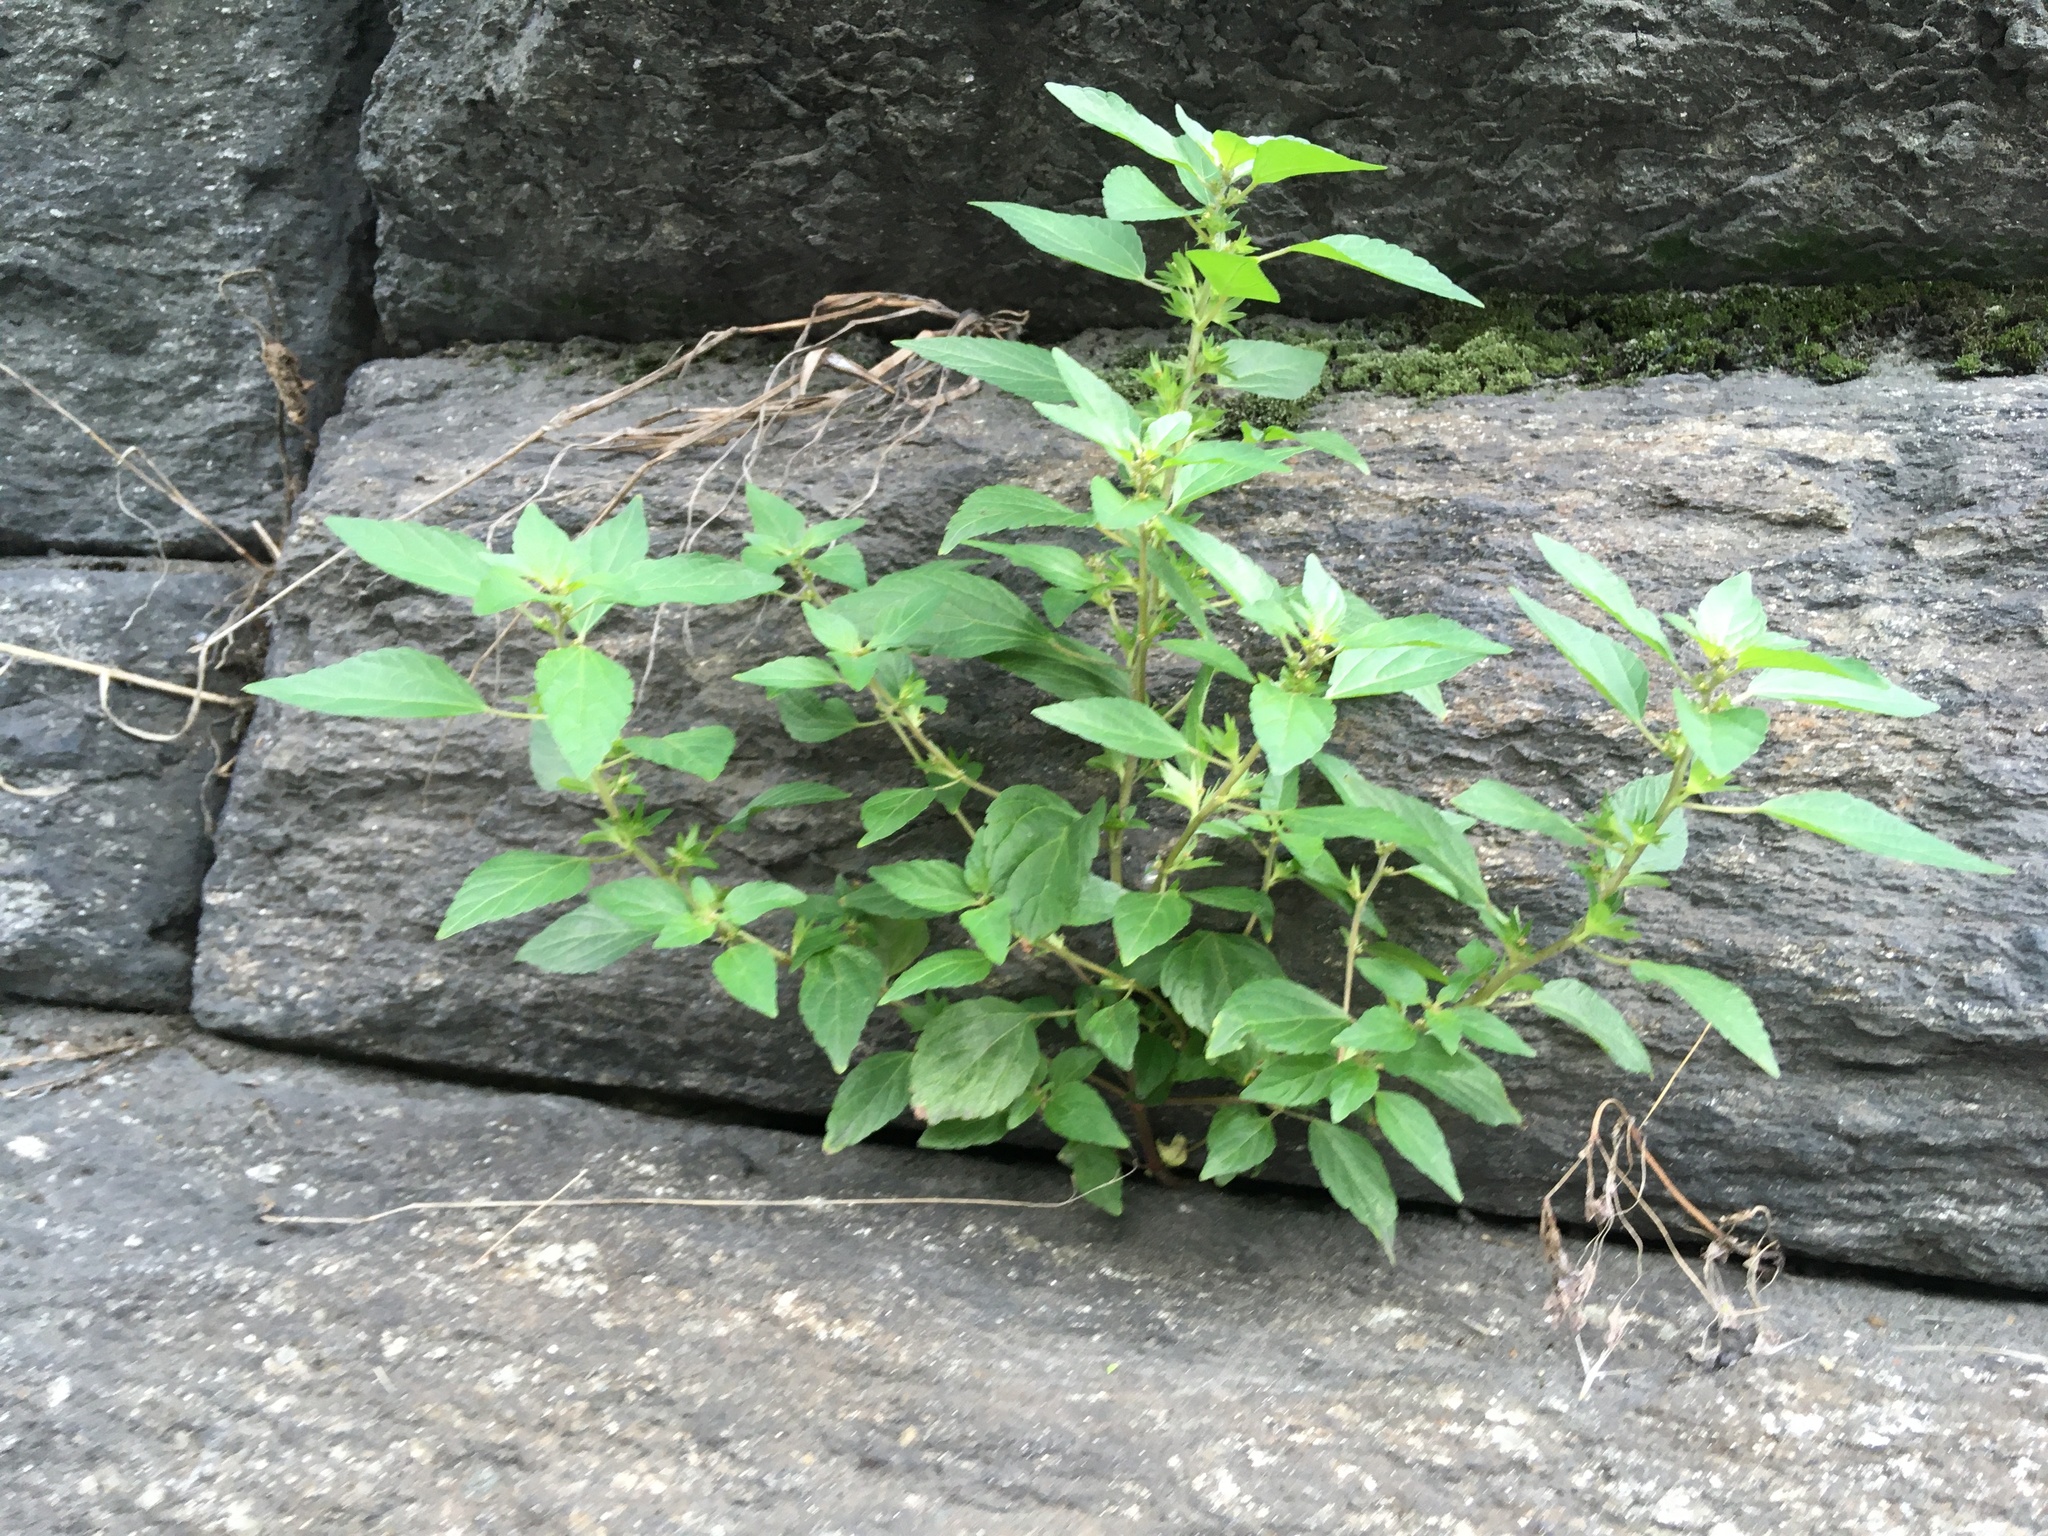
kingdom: Plantae
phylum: Tracheophyta
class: Magnoliopsida
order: Malpighiales
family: Euphorbiaceae
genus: Acalypha
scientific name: Acalypha rhomboidea
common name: Rhombic copperleaf
